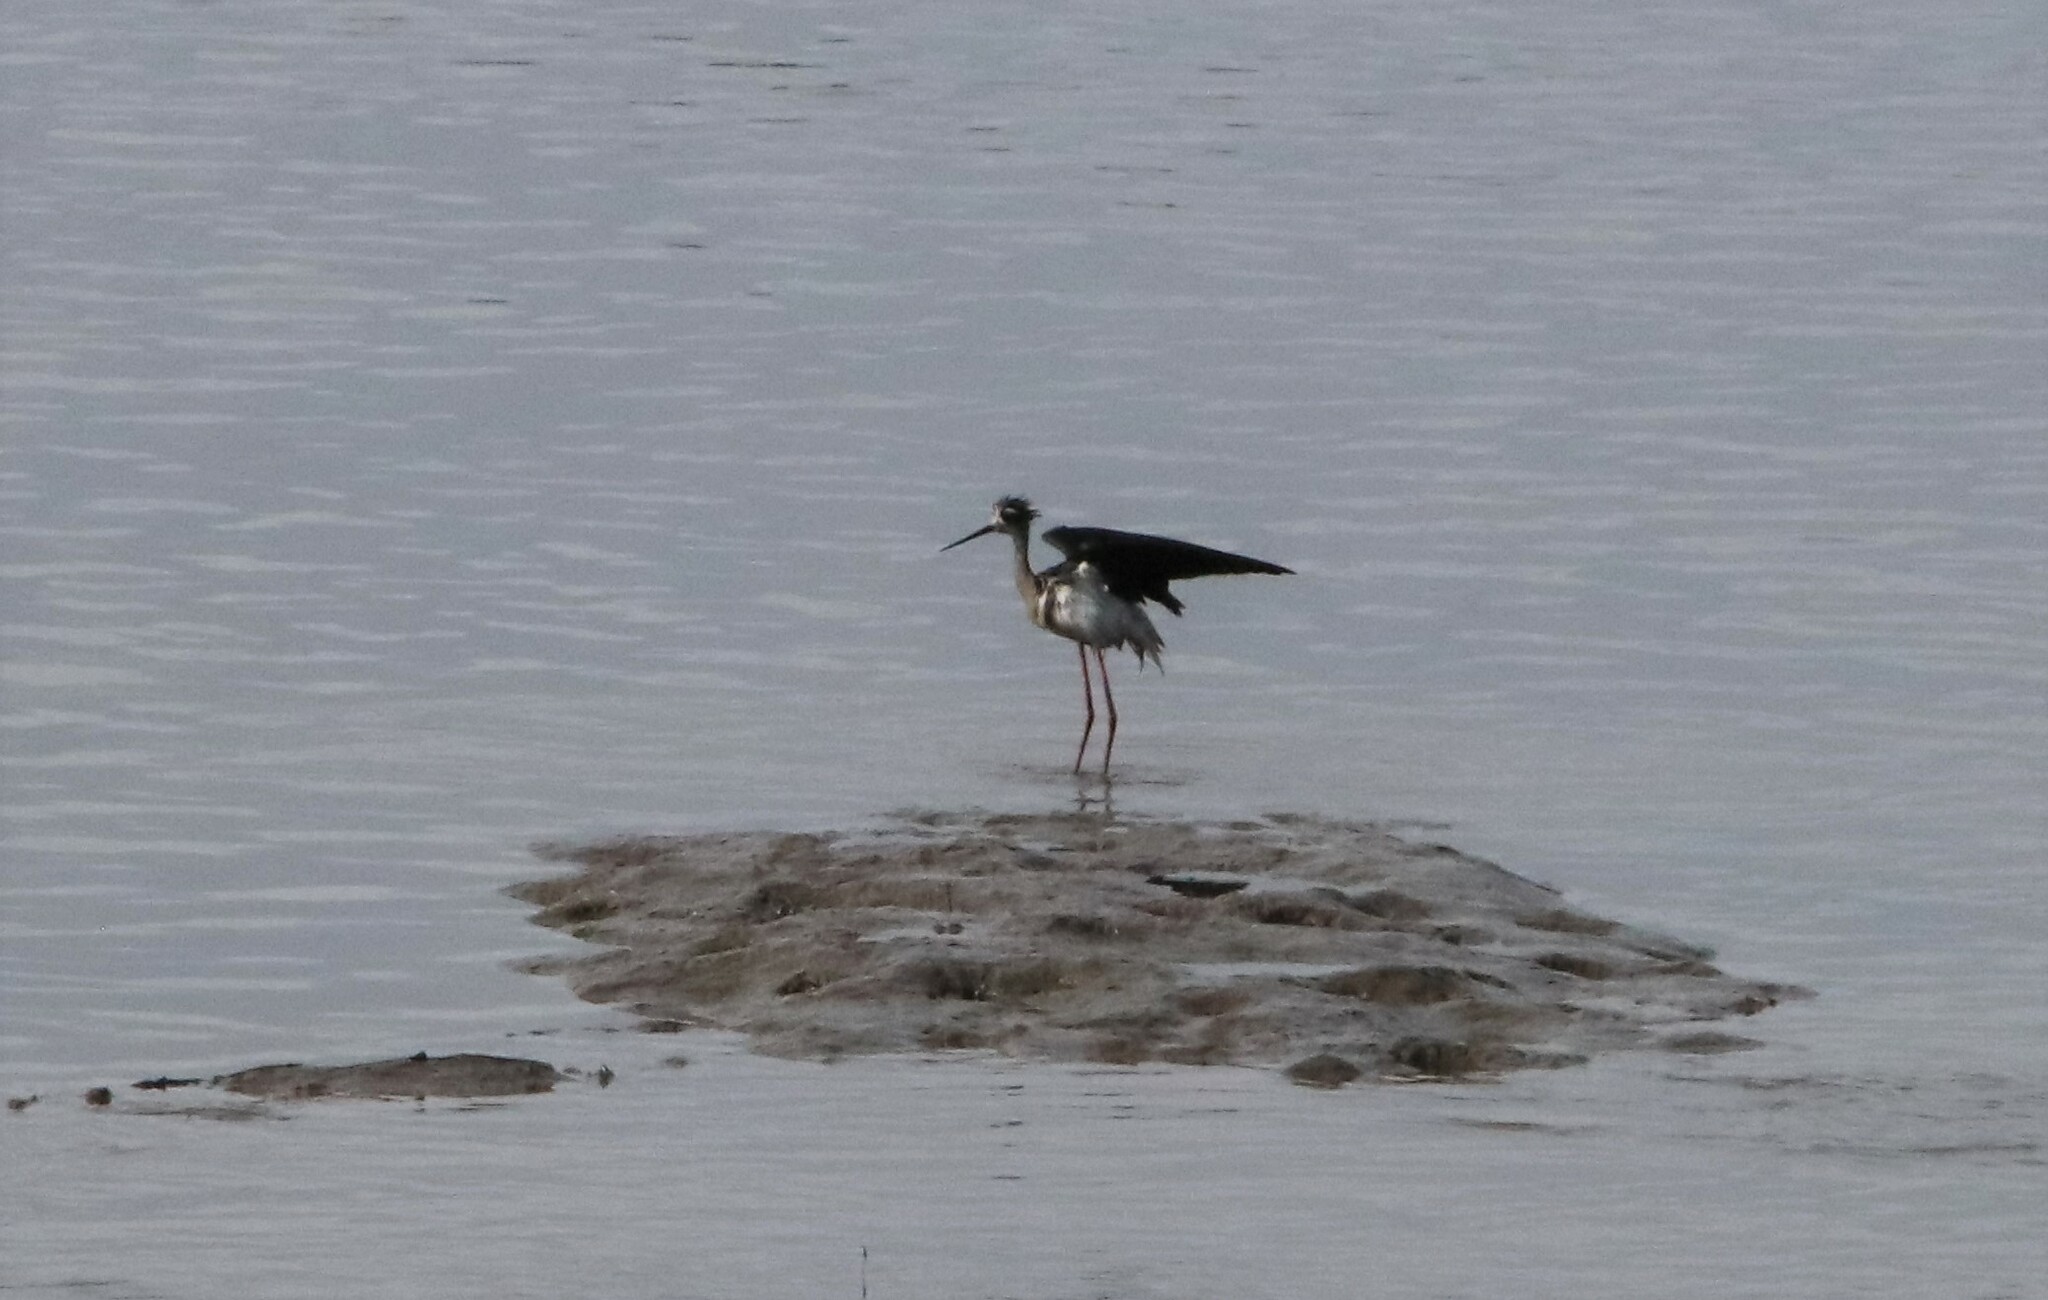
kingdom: Animalia
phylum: Chordata
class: Aves
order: Charadriiformes
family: Recurvirostridae
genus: Himantopus
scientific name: Himantopus mexicanus
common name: Black-necked stilt
